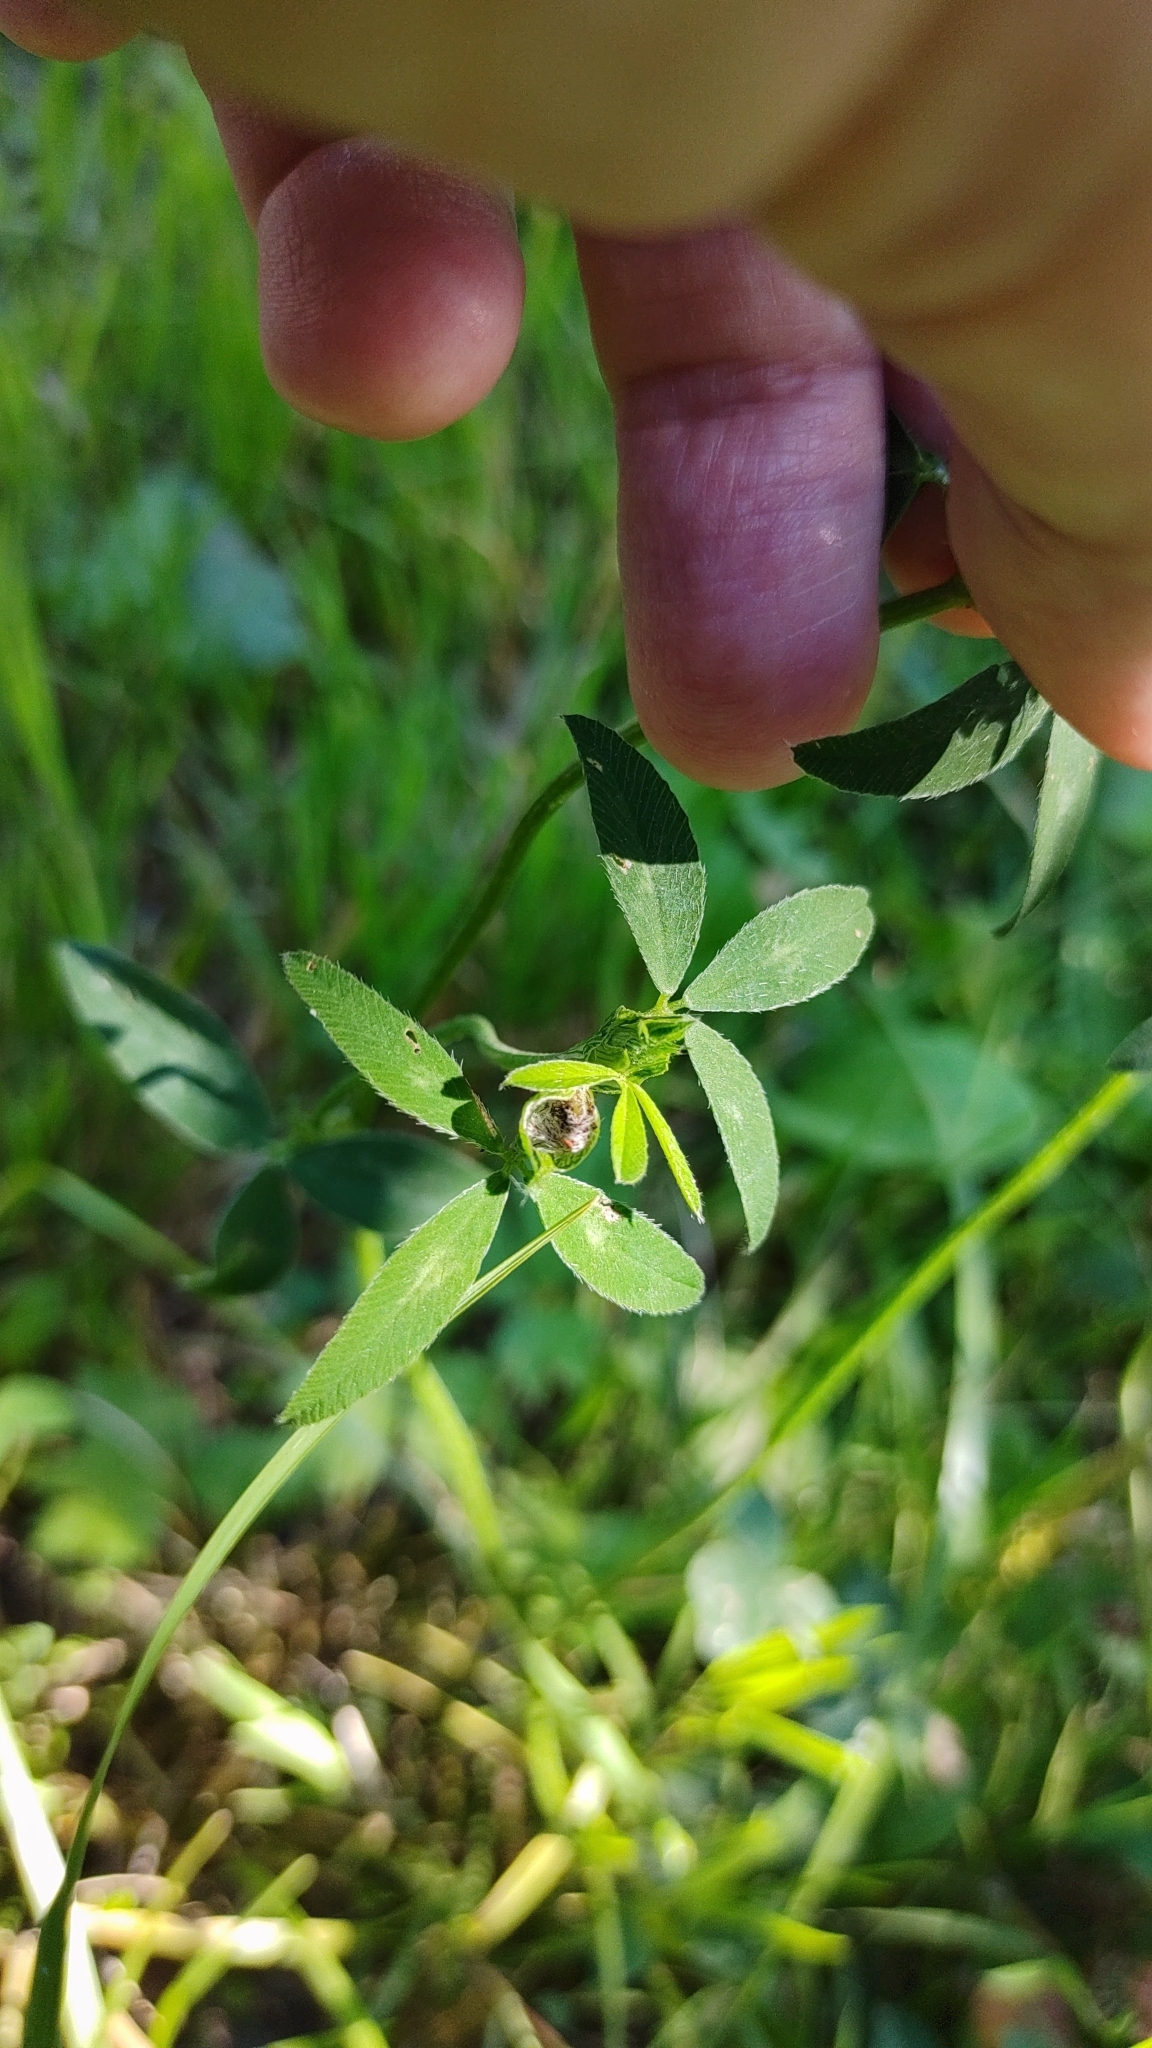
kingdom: Plantae
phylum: Tracheophyta
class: Magnoliopsida
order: Fabales
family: Fabaceae
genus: Trifolium
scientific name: Trifolium pratense
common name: Red clover
